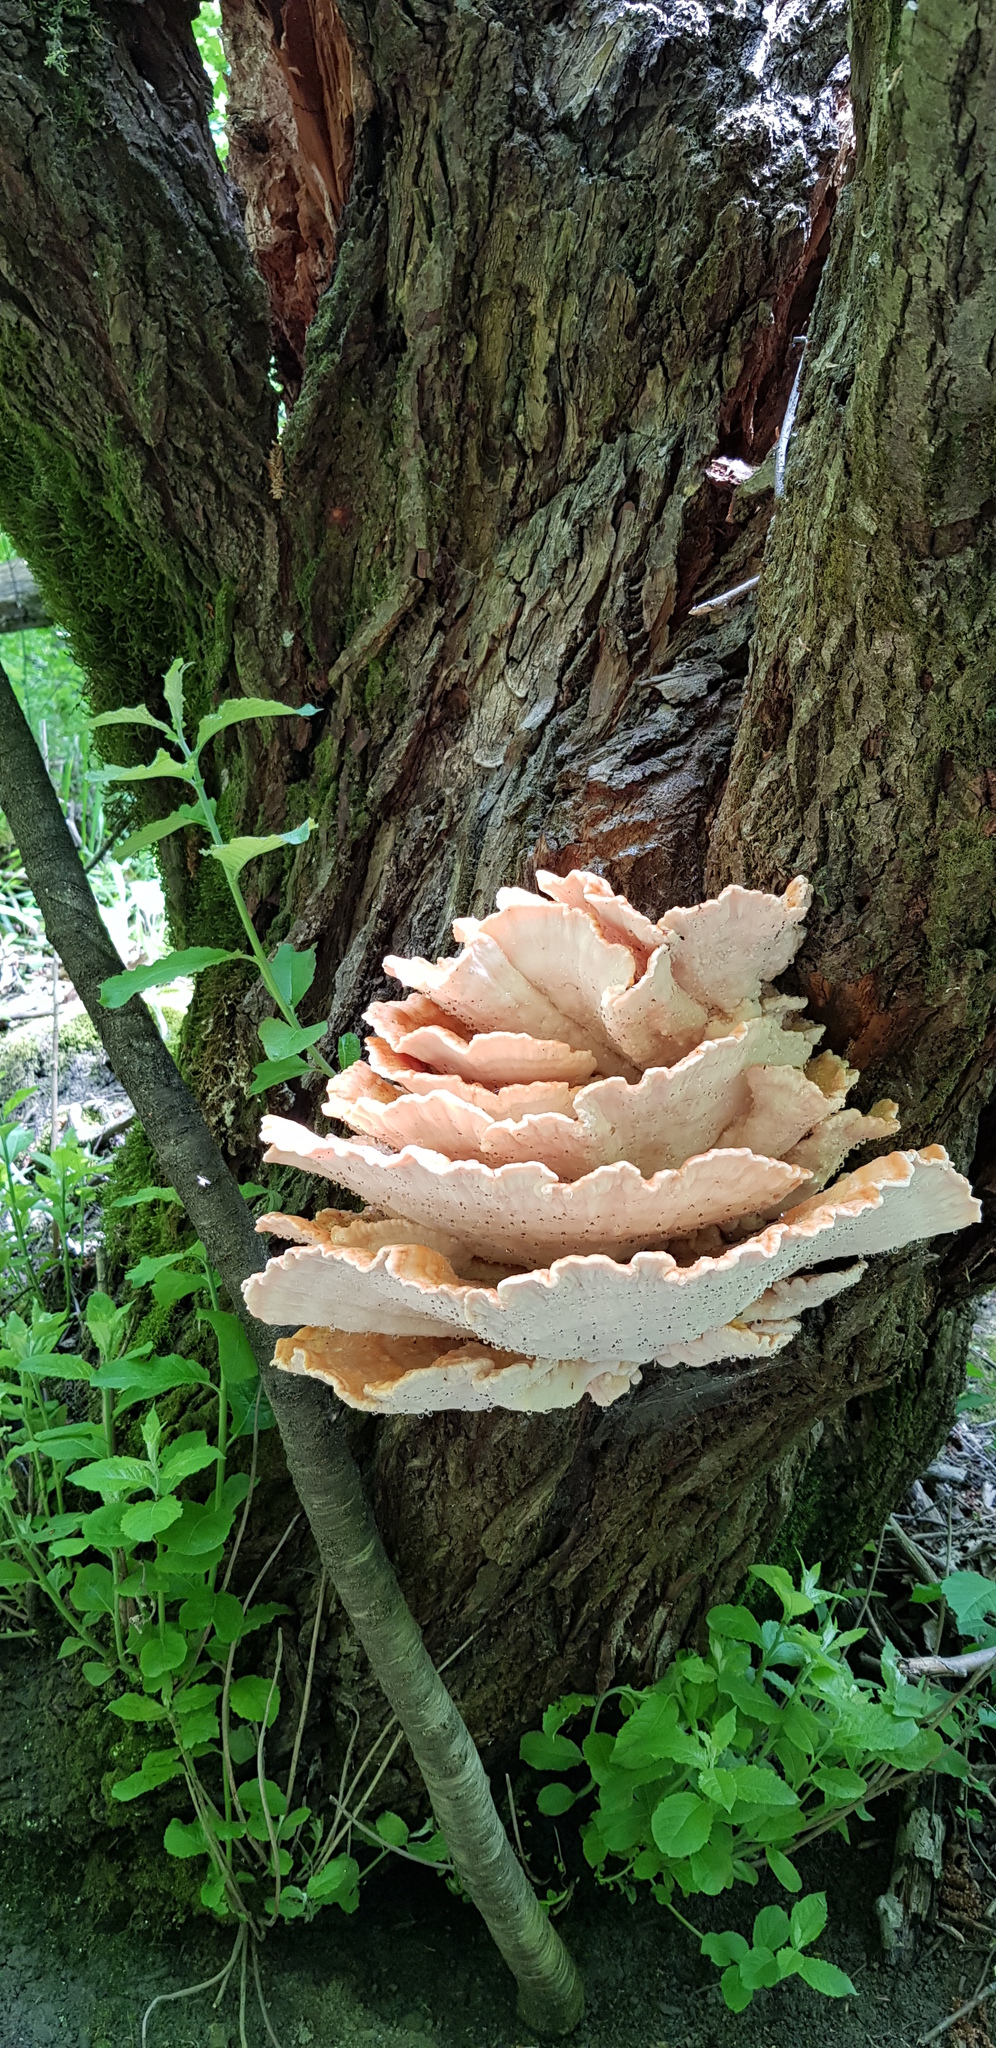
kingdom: Fungi
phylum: Basidiomycota
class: Agaricomycetes
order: Polyporales
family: Laetiporaceae
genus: Laetiporus
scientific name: Laetiporus sulphureus
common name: Chicken of the woods
